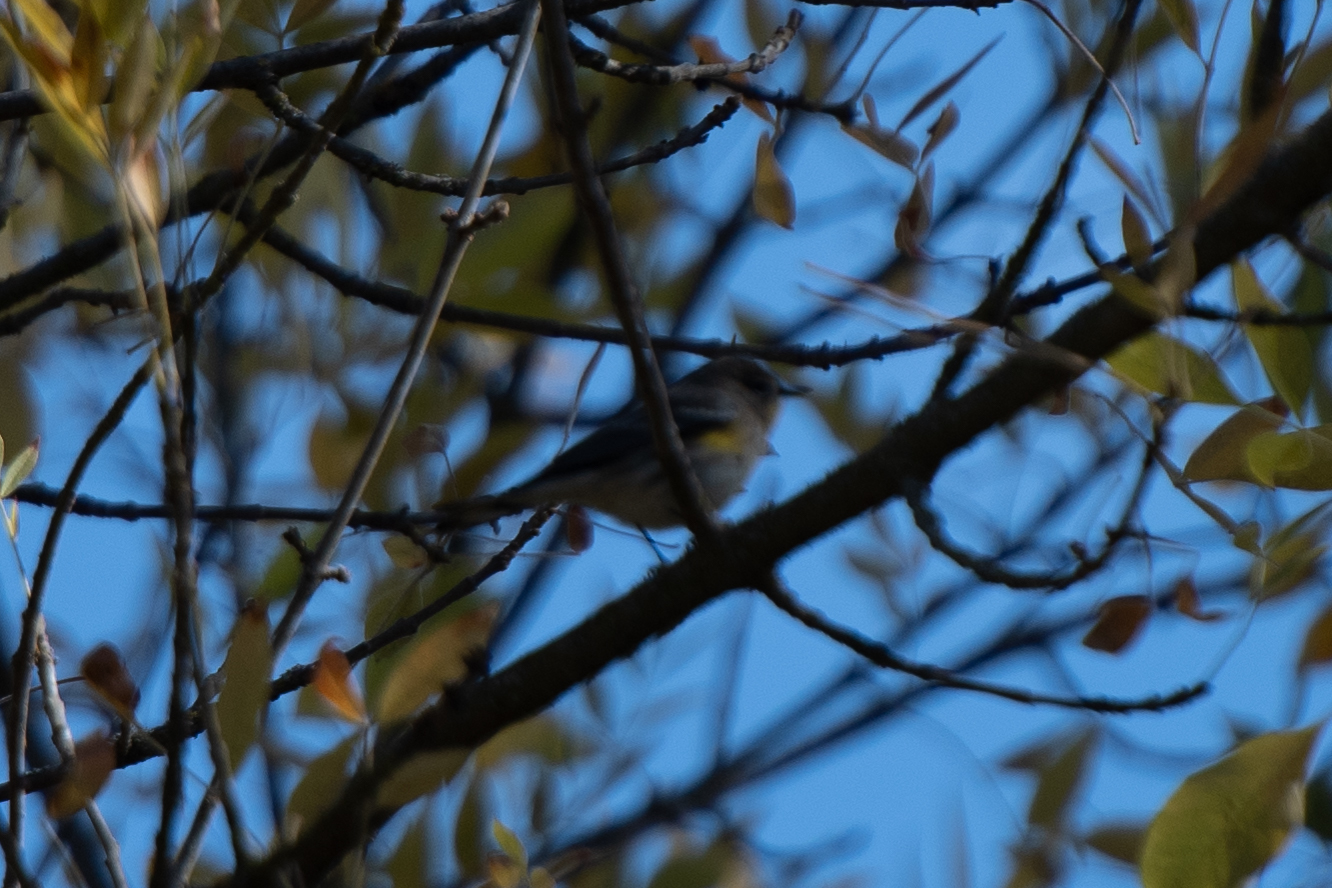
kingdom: Animalia
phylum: Chordata
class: Aves
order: Passeriformes
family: Parulidae
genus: Setophaga
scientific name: Setophaga coronata
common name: Myrtle warbler
